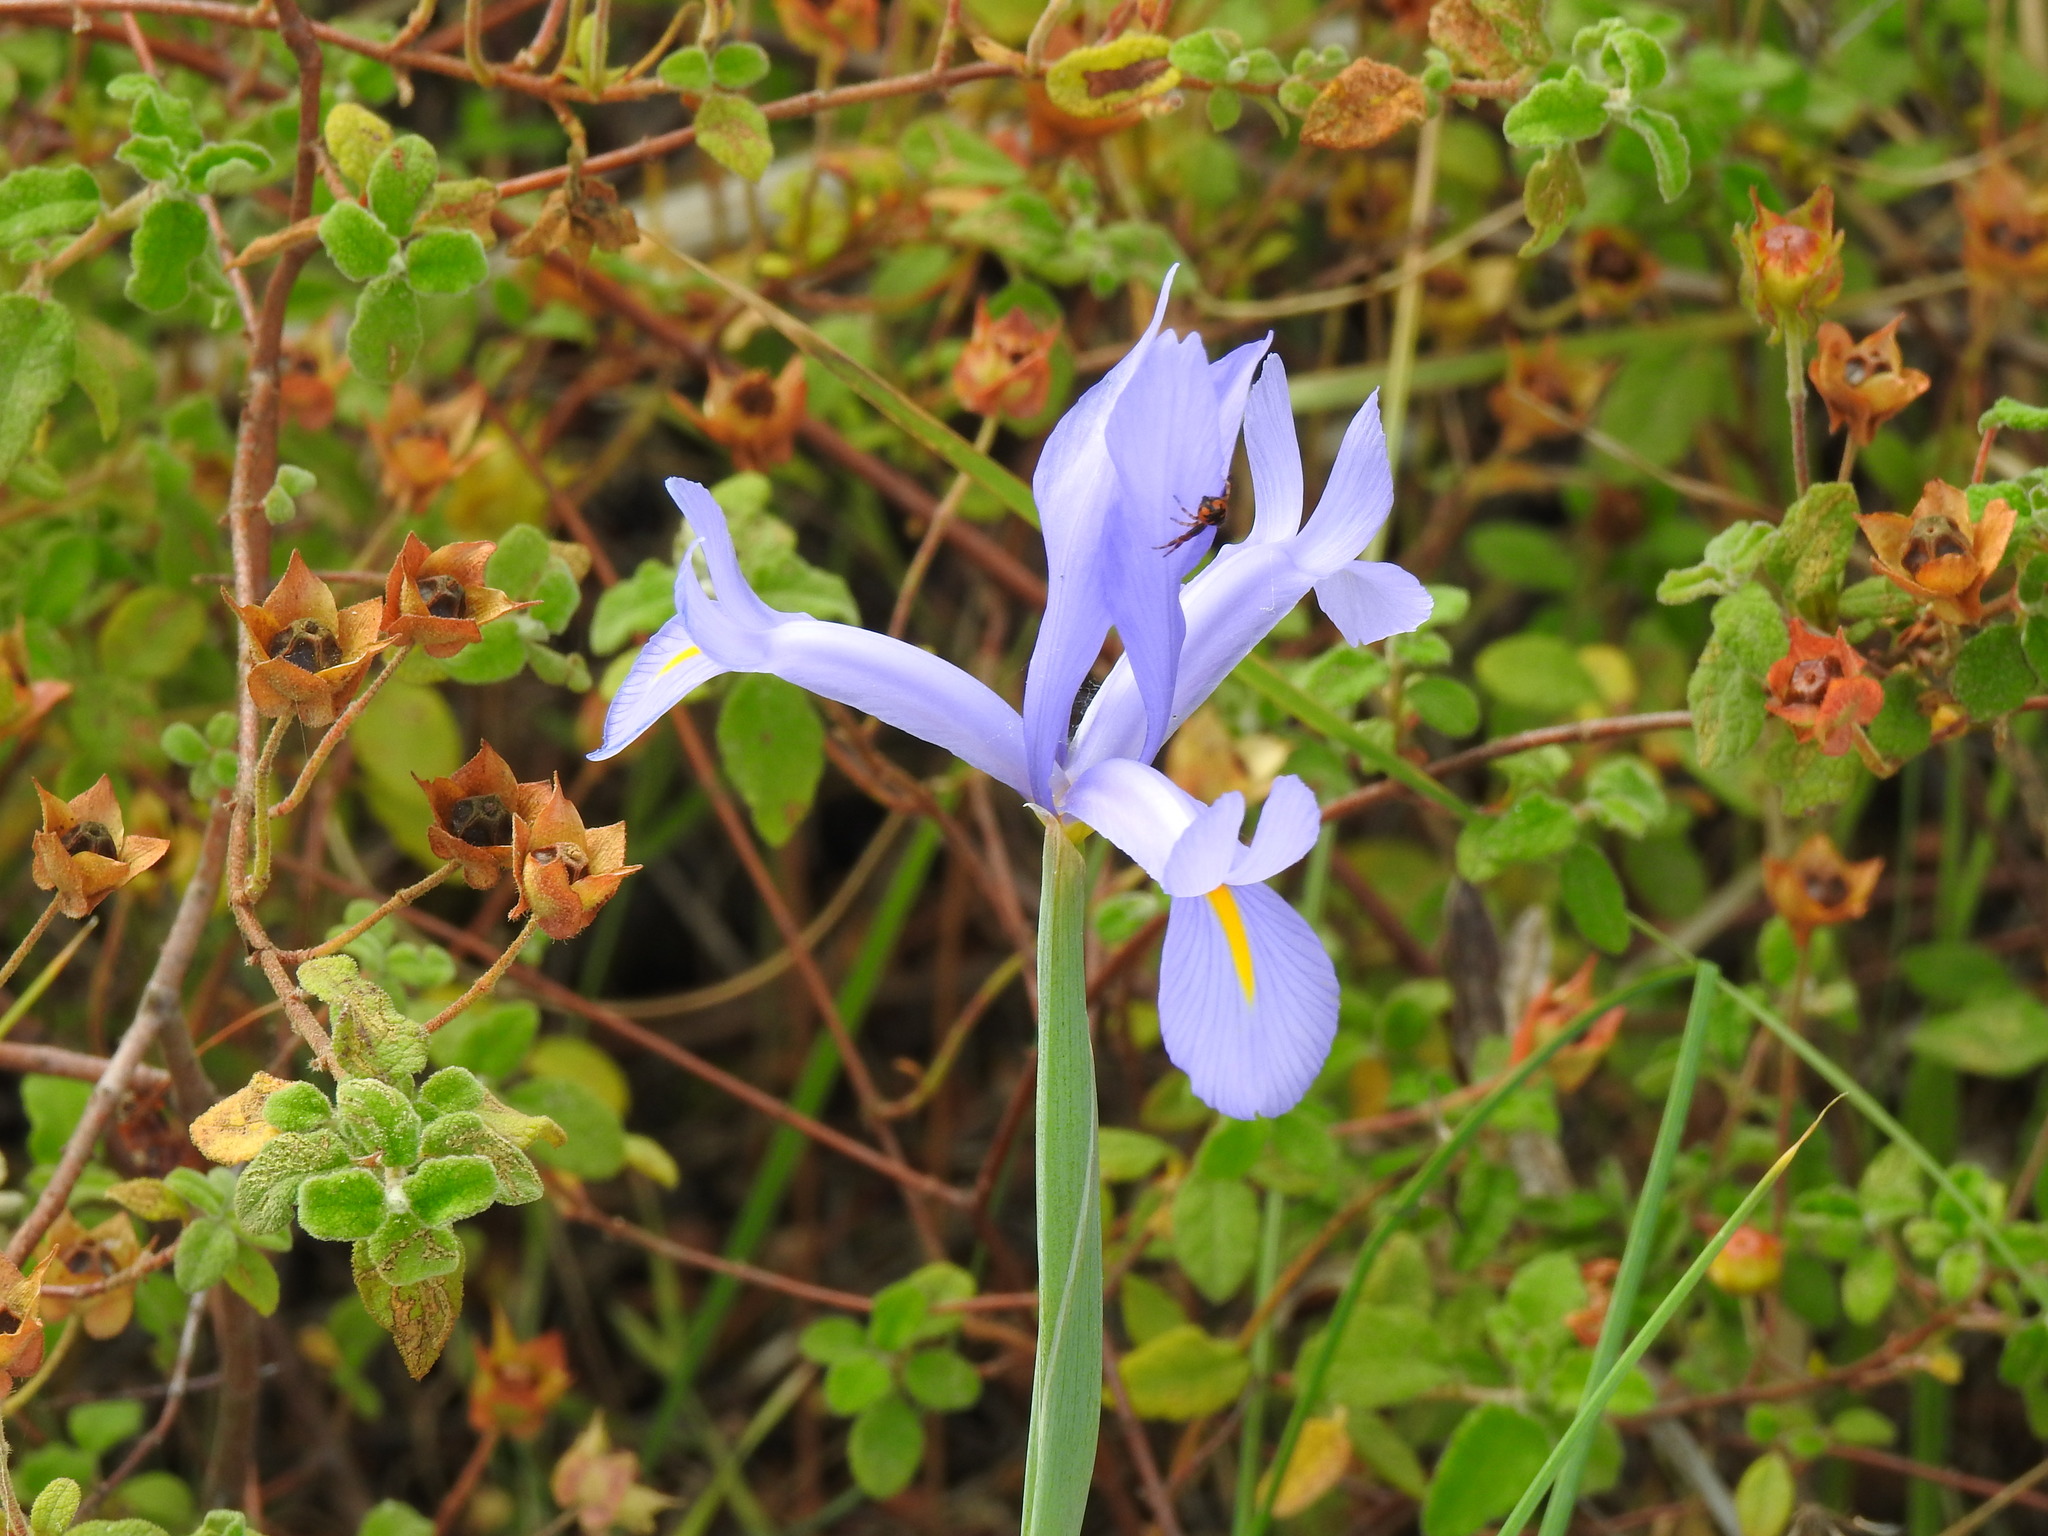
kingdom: Plantae
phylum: Tracheophyta
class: Liliopsida
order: Asparagales
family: Iridaceae
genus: Iris
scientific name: Iris xiphium
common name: Spanish iris
